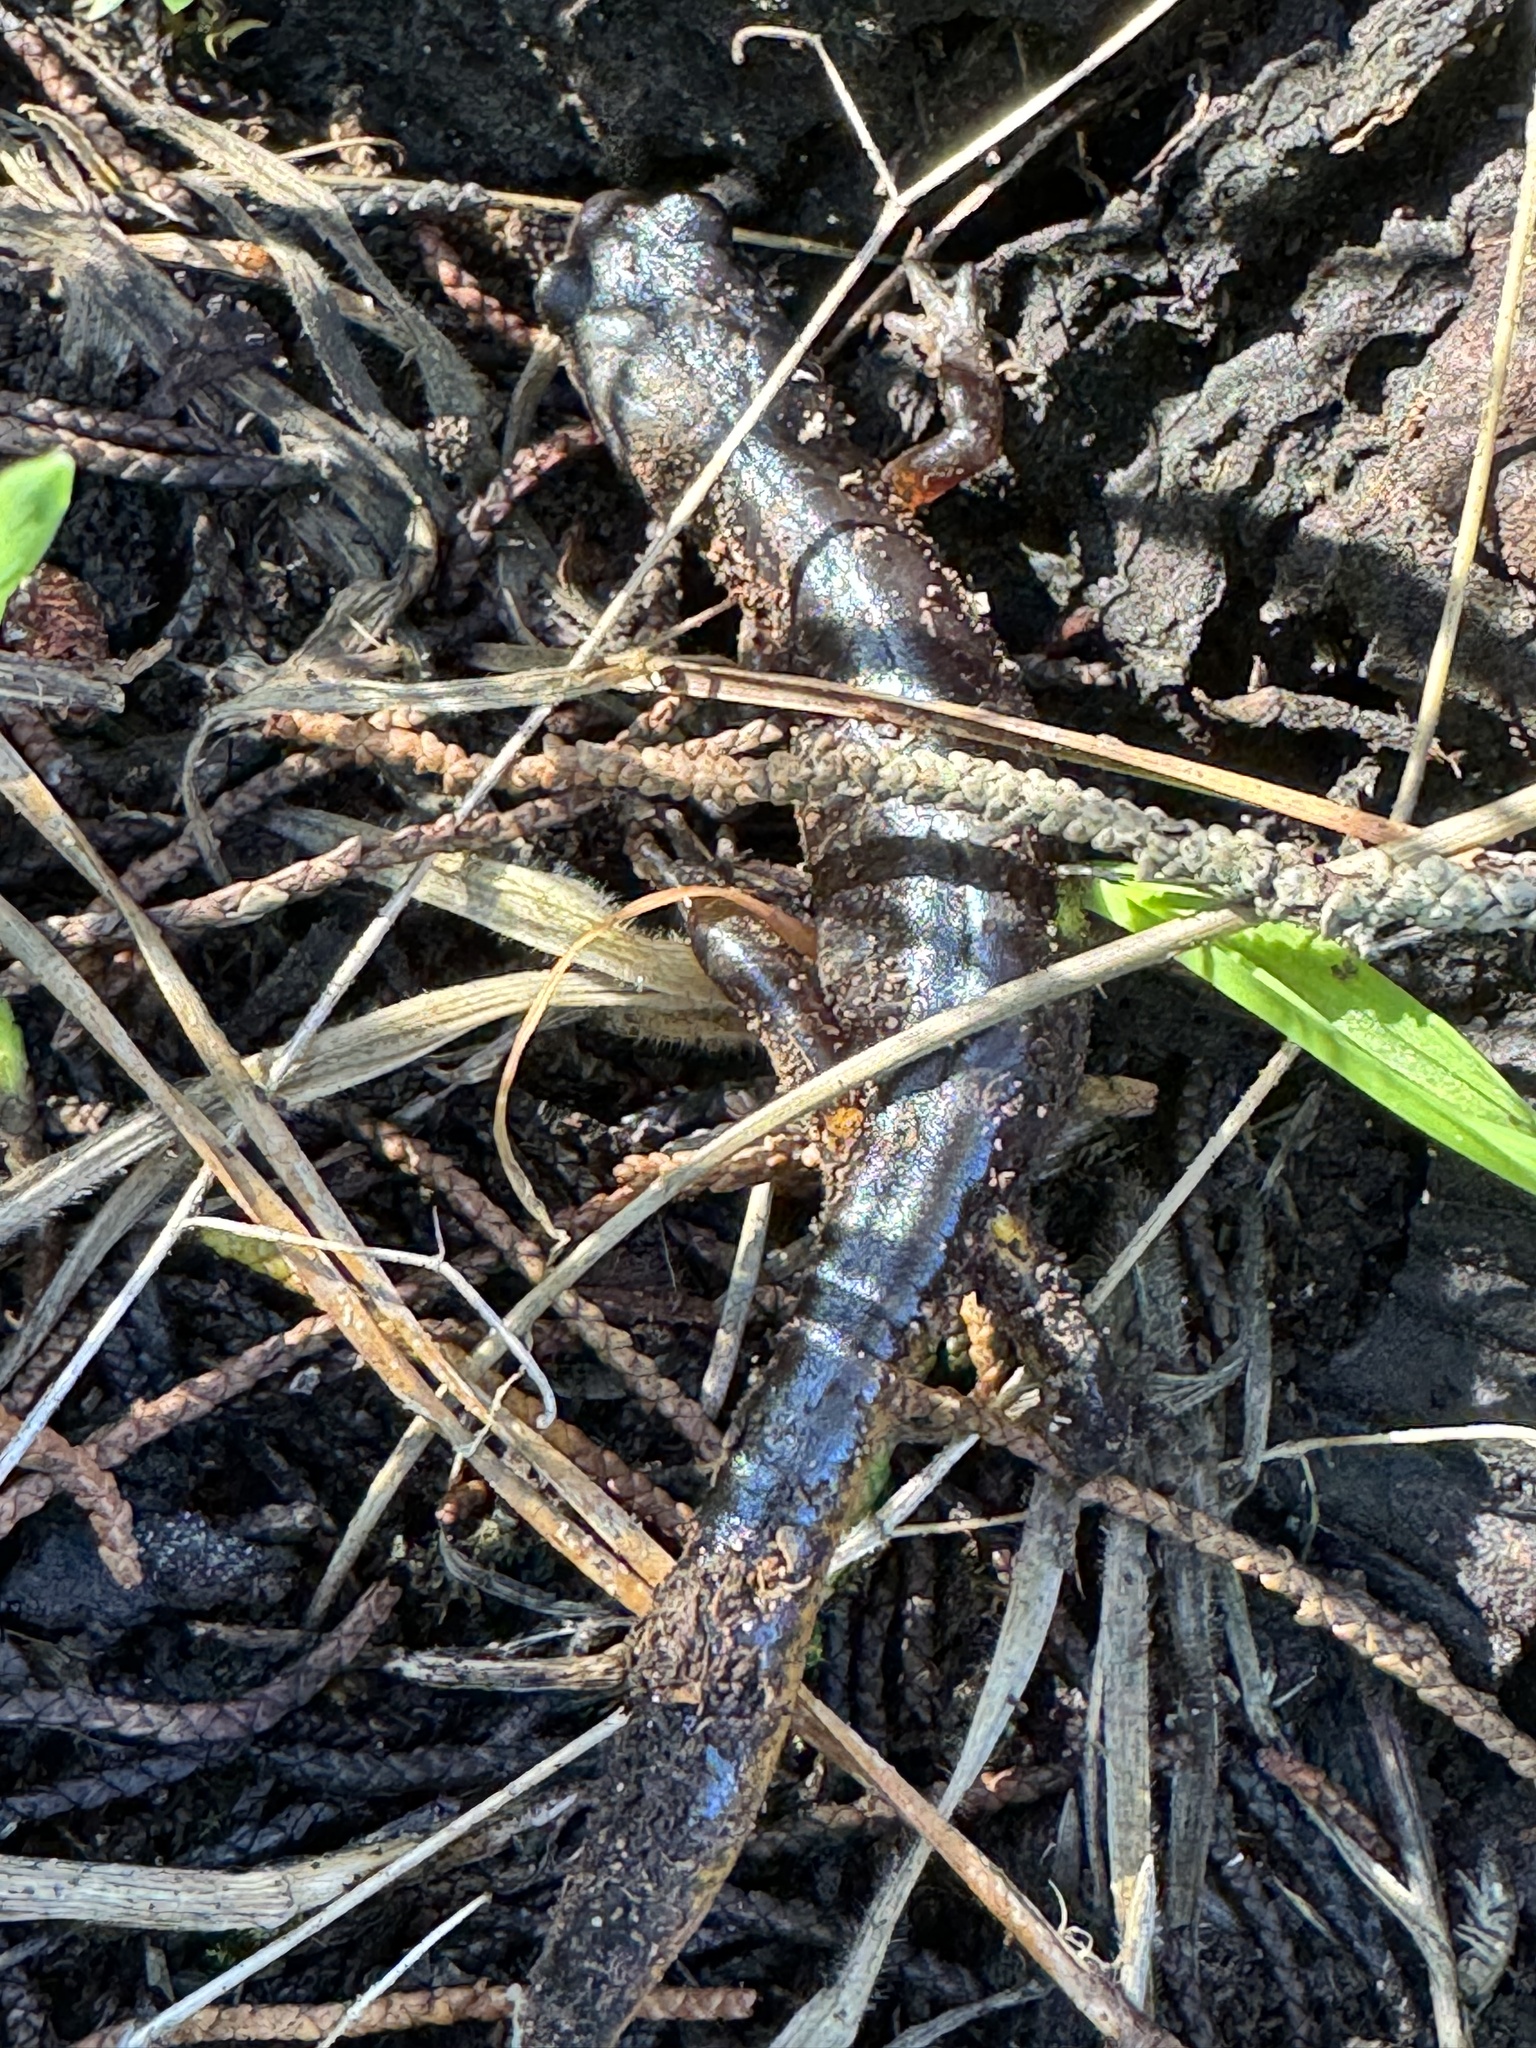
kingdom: Animalia
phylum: Chordata
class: Amphibia
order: Caudata
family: Plethodontidae
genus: Ensatina
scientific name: Ensatina eschscholtzii
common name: Ensatina
